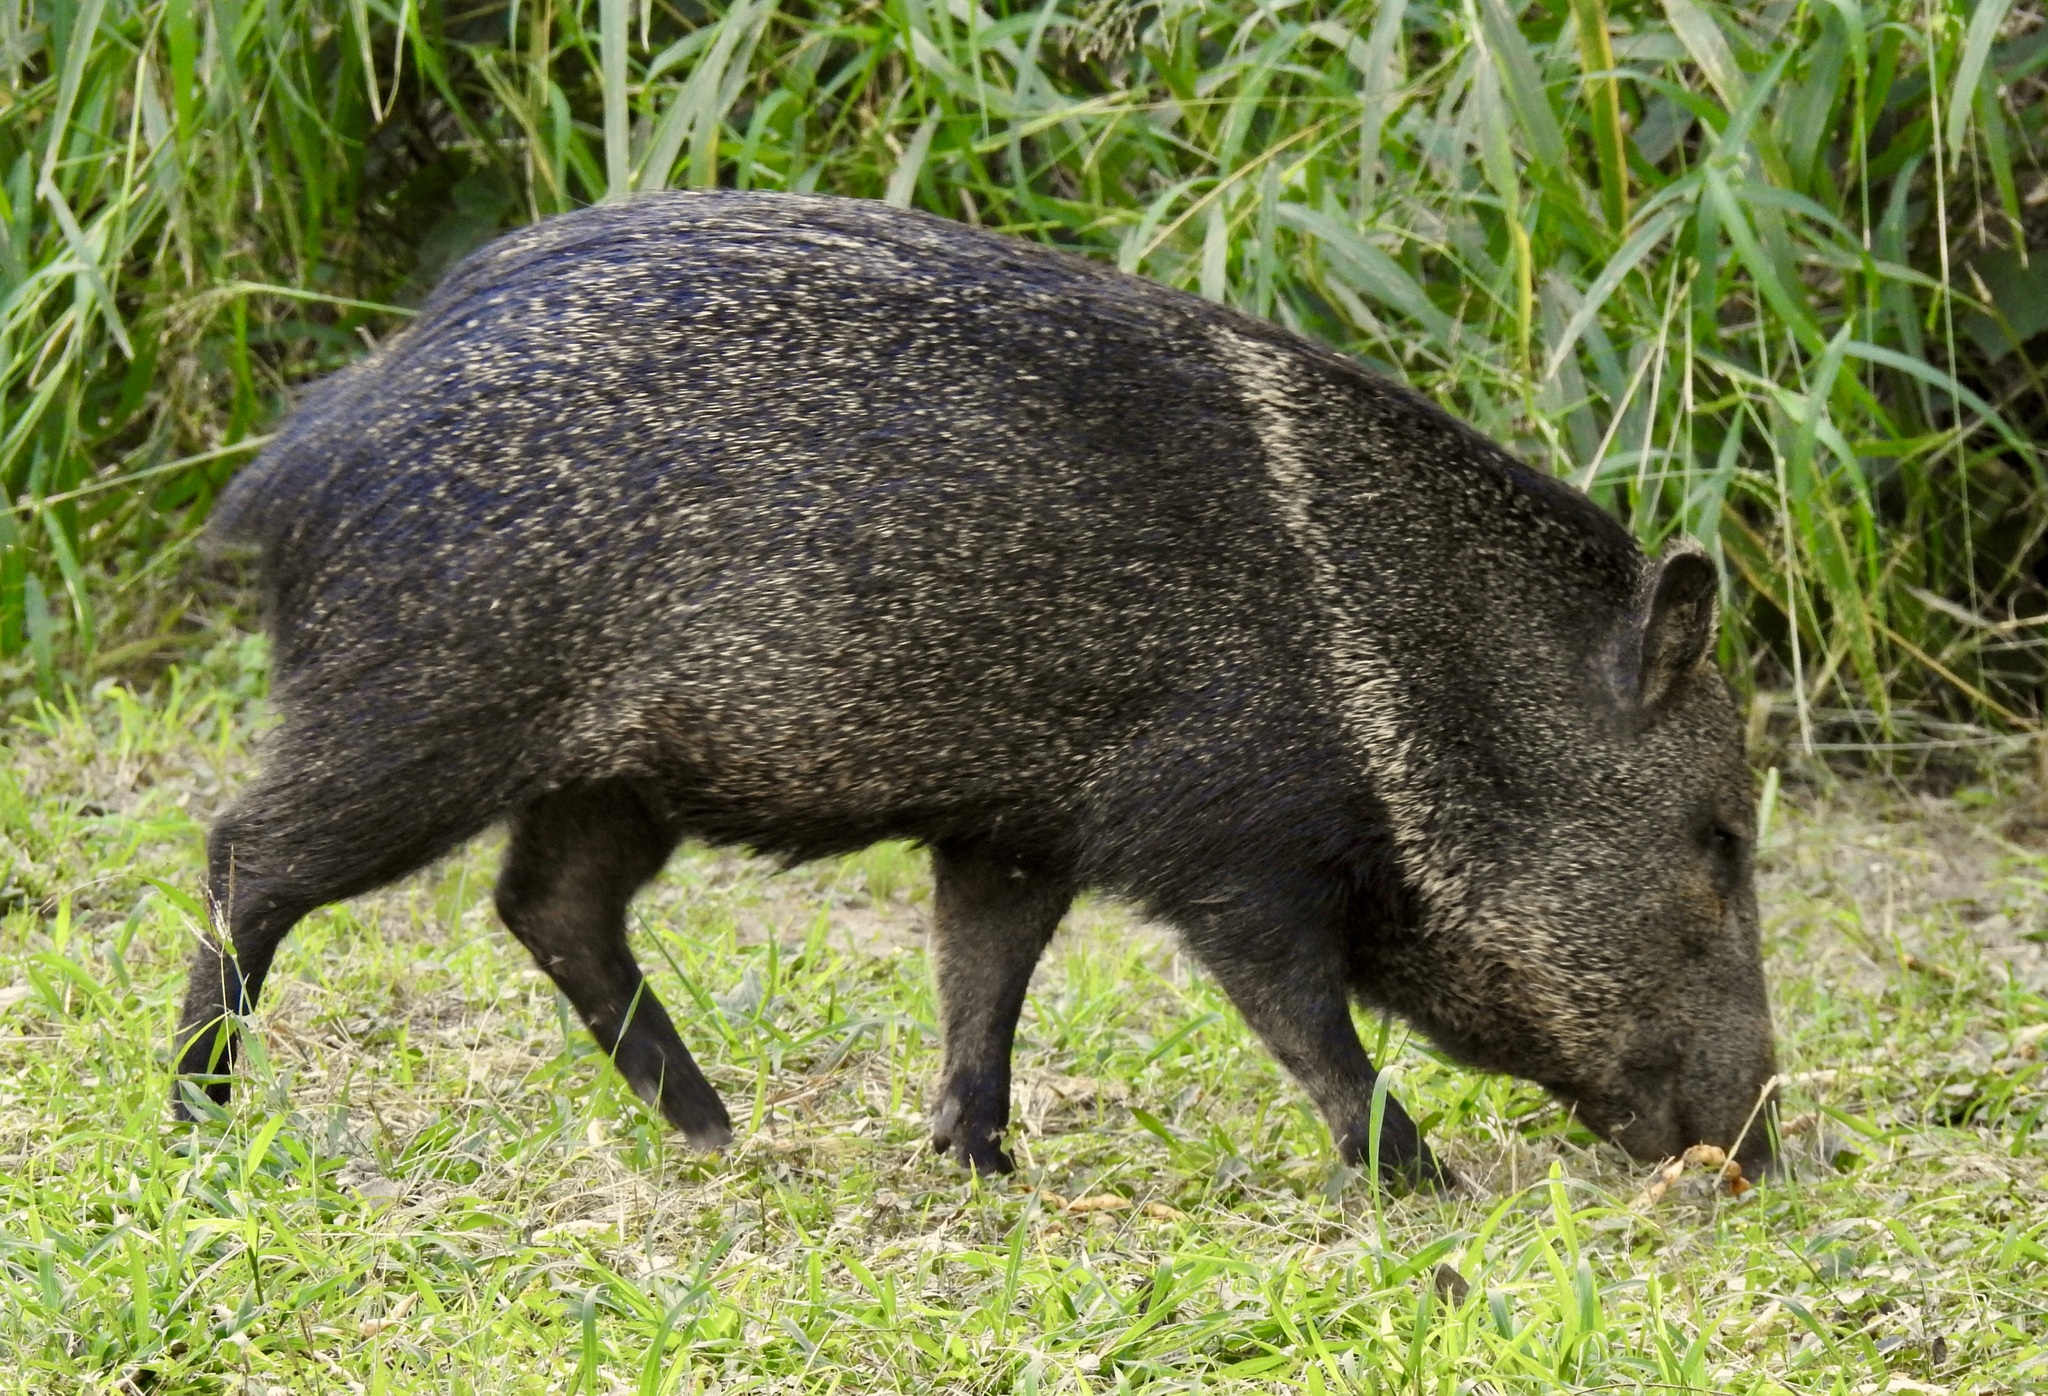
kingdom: Animalia
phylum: Chordata
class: Mammalia
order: Artiodactyla
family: Tayassuidae
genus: Pecari
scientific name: Pecari tajacu
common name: Collared peccary
